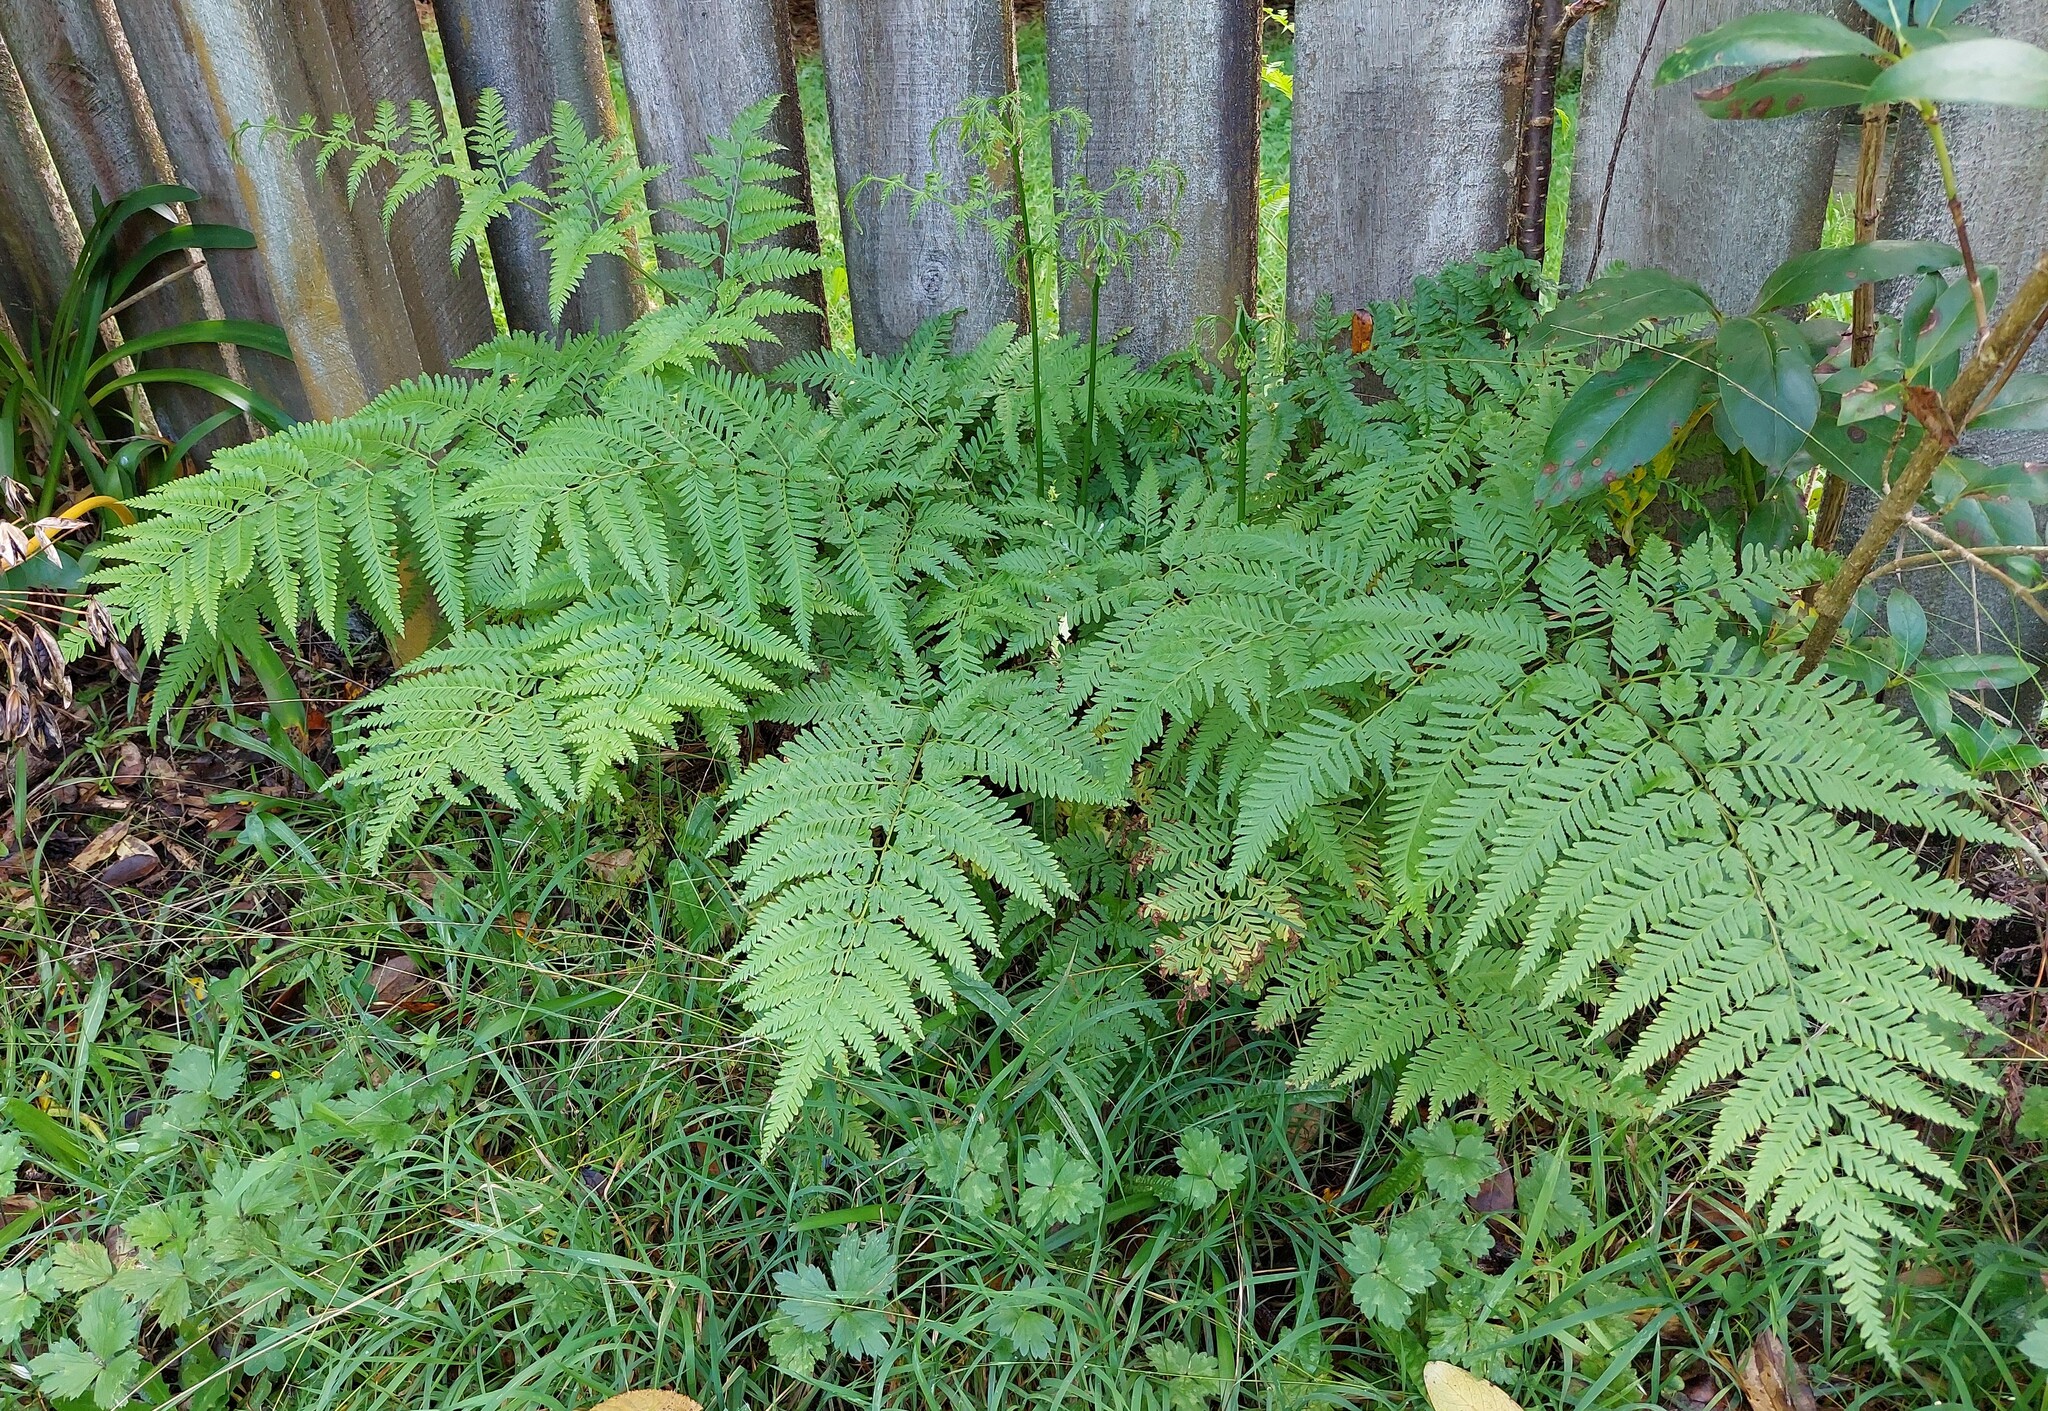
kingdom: Plantae
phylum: Tracheophyta
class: Polypodiopsida
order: Polypodiales
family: Pteridaceae
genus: Pteris
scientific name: Pteris tremula
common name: Australian brake
